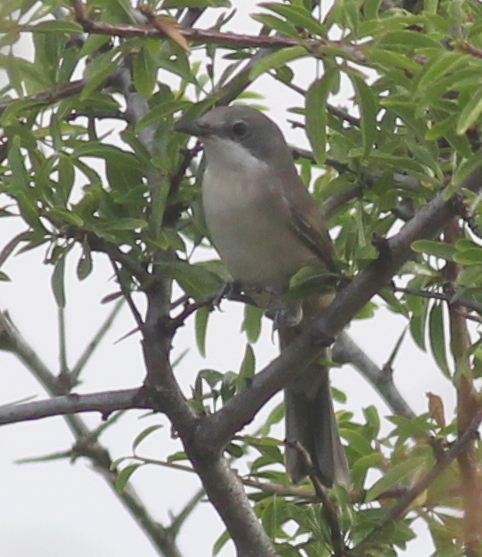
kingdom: Animalia
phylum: Chordata
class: Aves
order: Passeriformes
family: Sylviidae
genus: Sylvia
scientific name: Sylvia curruca
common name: Lesser whitethroat
